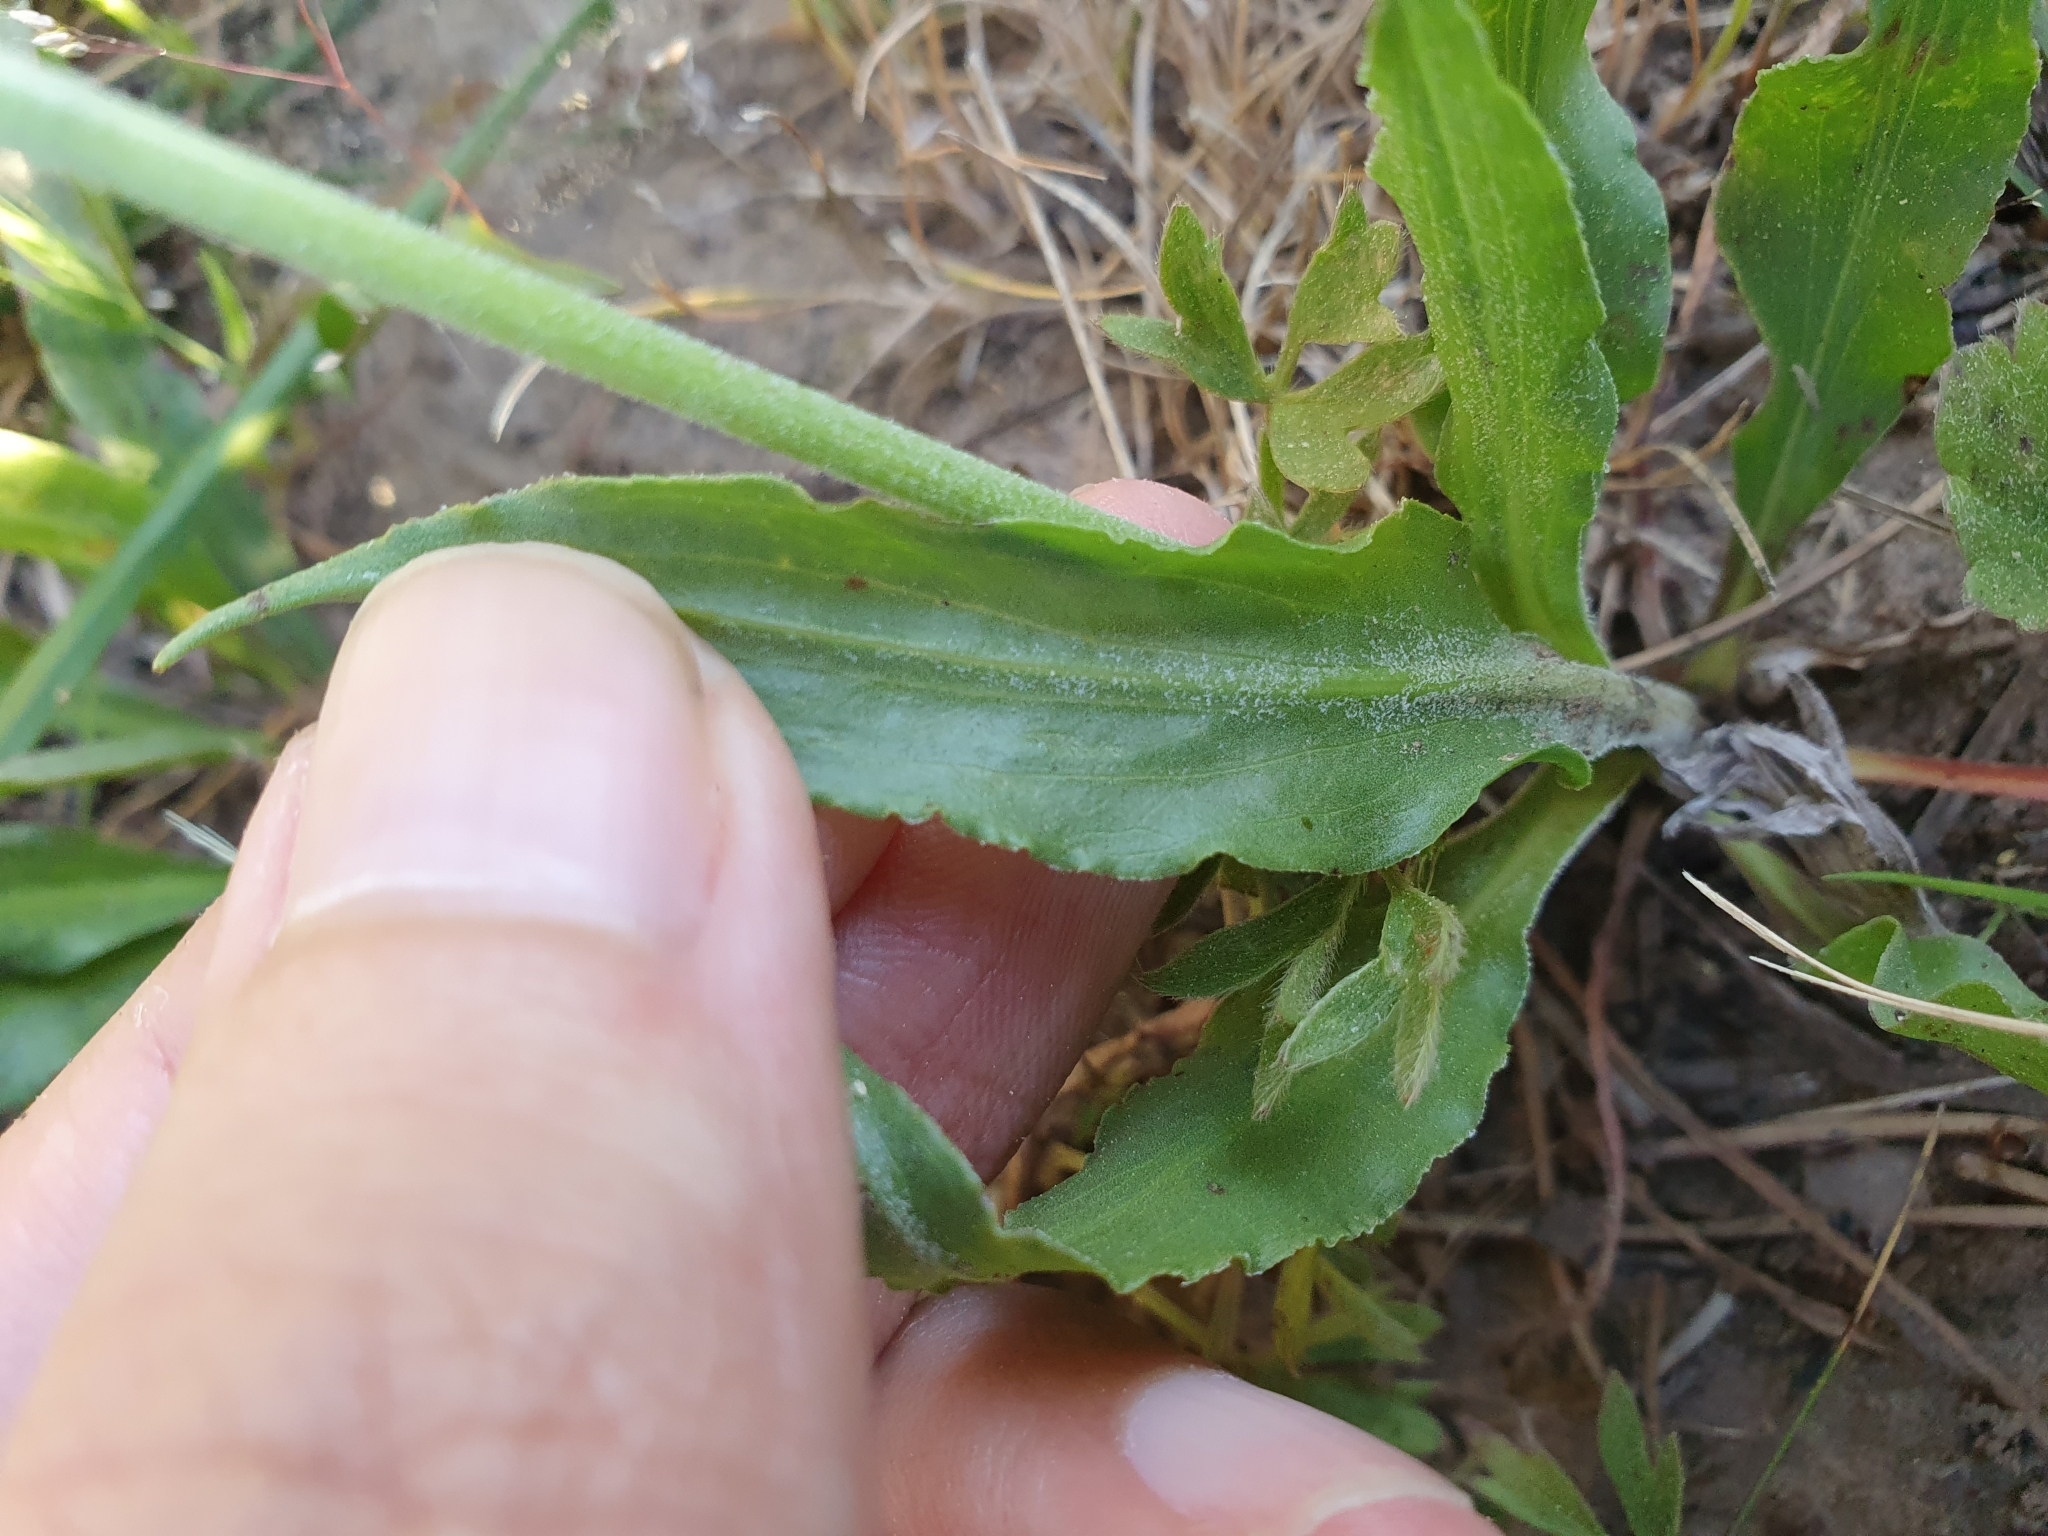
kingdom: Plantae
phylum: Tracheophyta
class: Magnoliopsida
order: Asterales
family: Asteraceae
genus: Pseudopodospermum
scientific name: Pseudopodospermum undulatum
